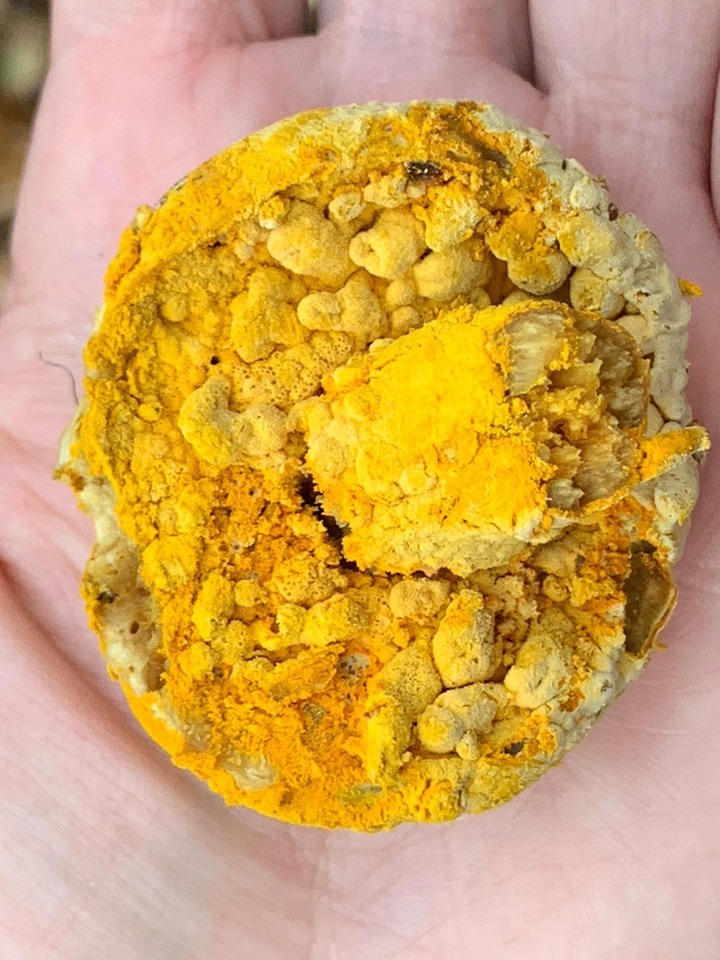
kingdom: Fungi
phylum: Ascomycota
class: Sordariomycetes
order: Hypocreales
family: Hypocreaceae
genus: Hypomyces
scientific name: Hypomyces chrysospermus
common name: Bolete mould
